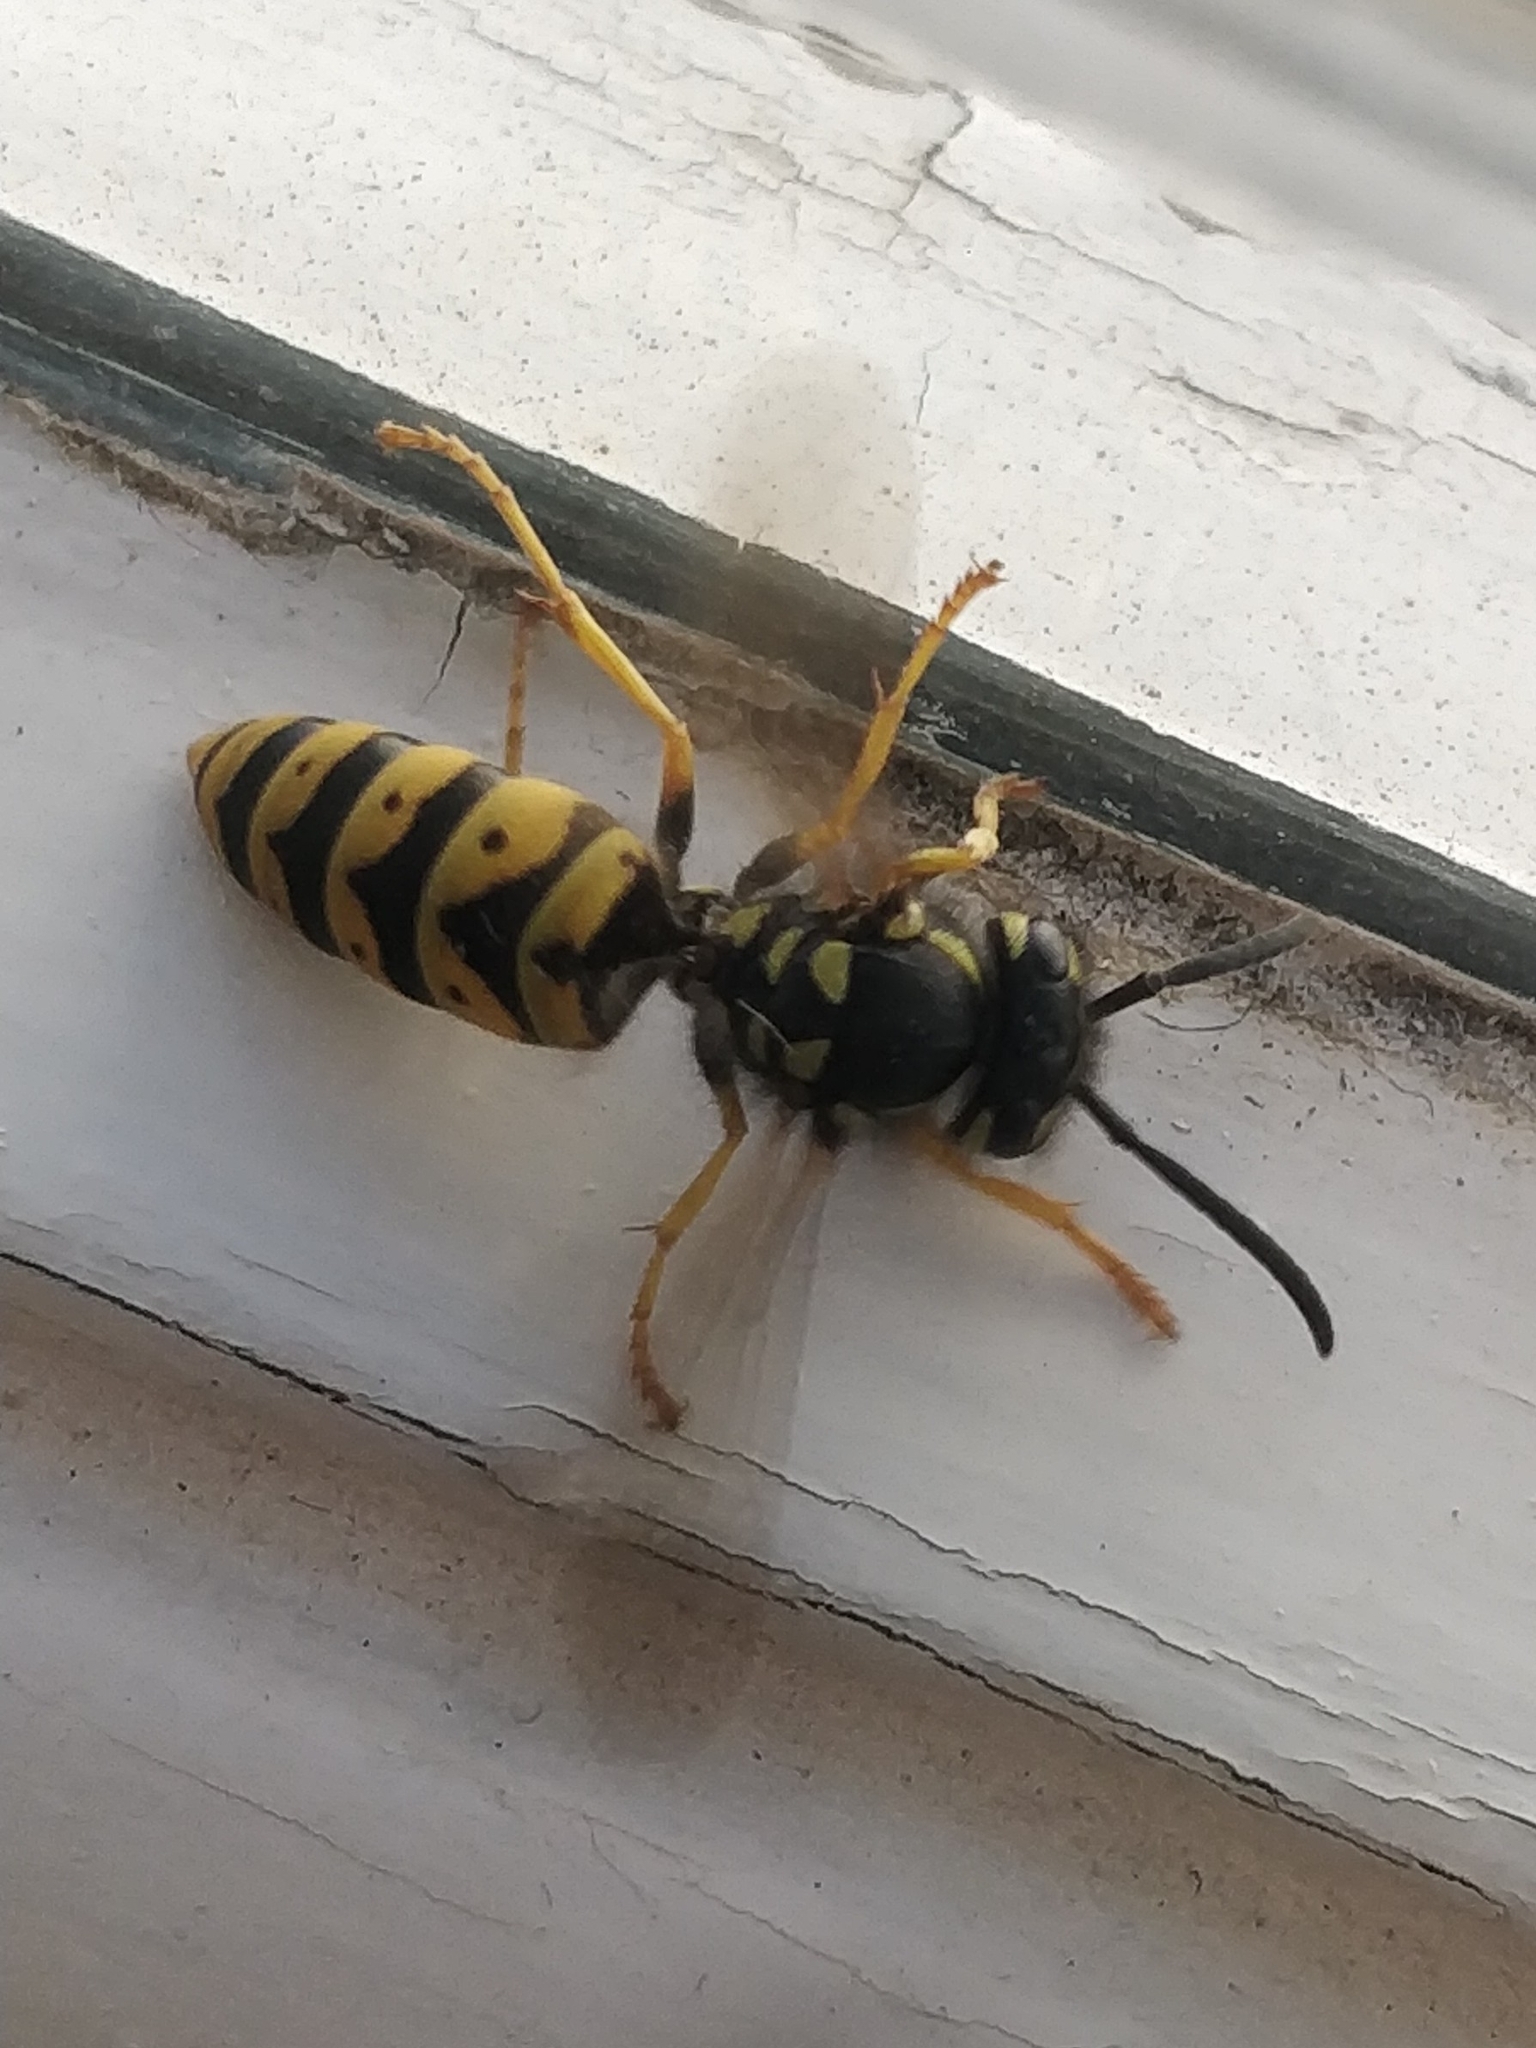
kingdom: Animalia
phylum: Arthropoda
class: Insecta
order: Hymenoptera
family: Vespidae
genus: Vespula
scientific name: Vespula germanica
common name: German wasp
